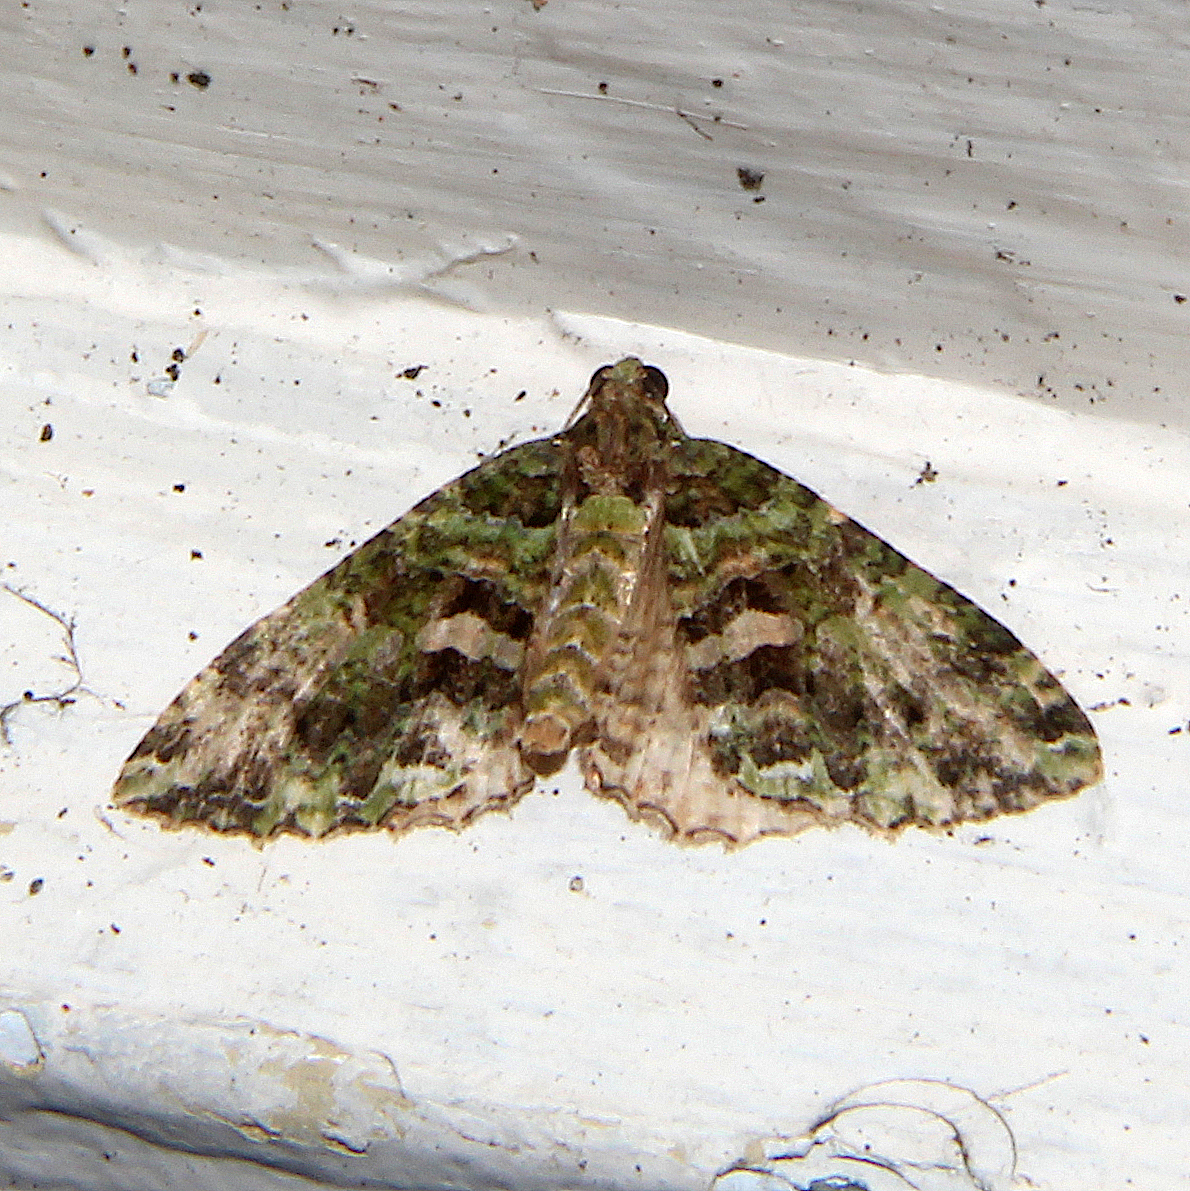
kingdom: Animalia
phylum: Arthropoda
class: Insecta
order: Lepidoptera
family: Geometridae
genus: Austrocidaria
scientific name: Austrocidaria similata
